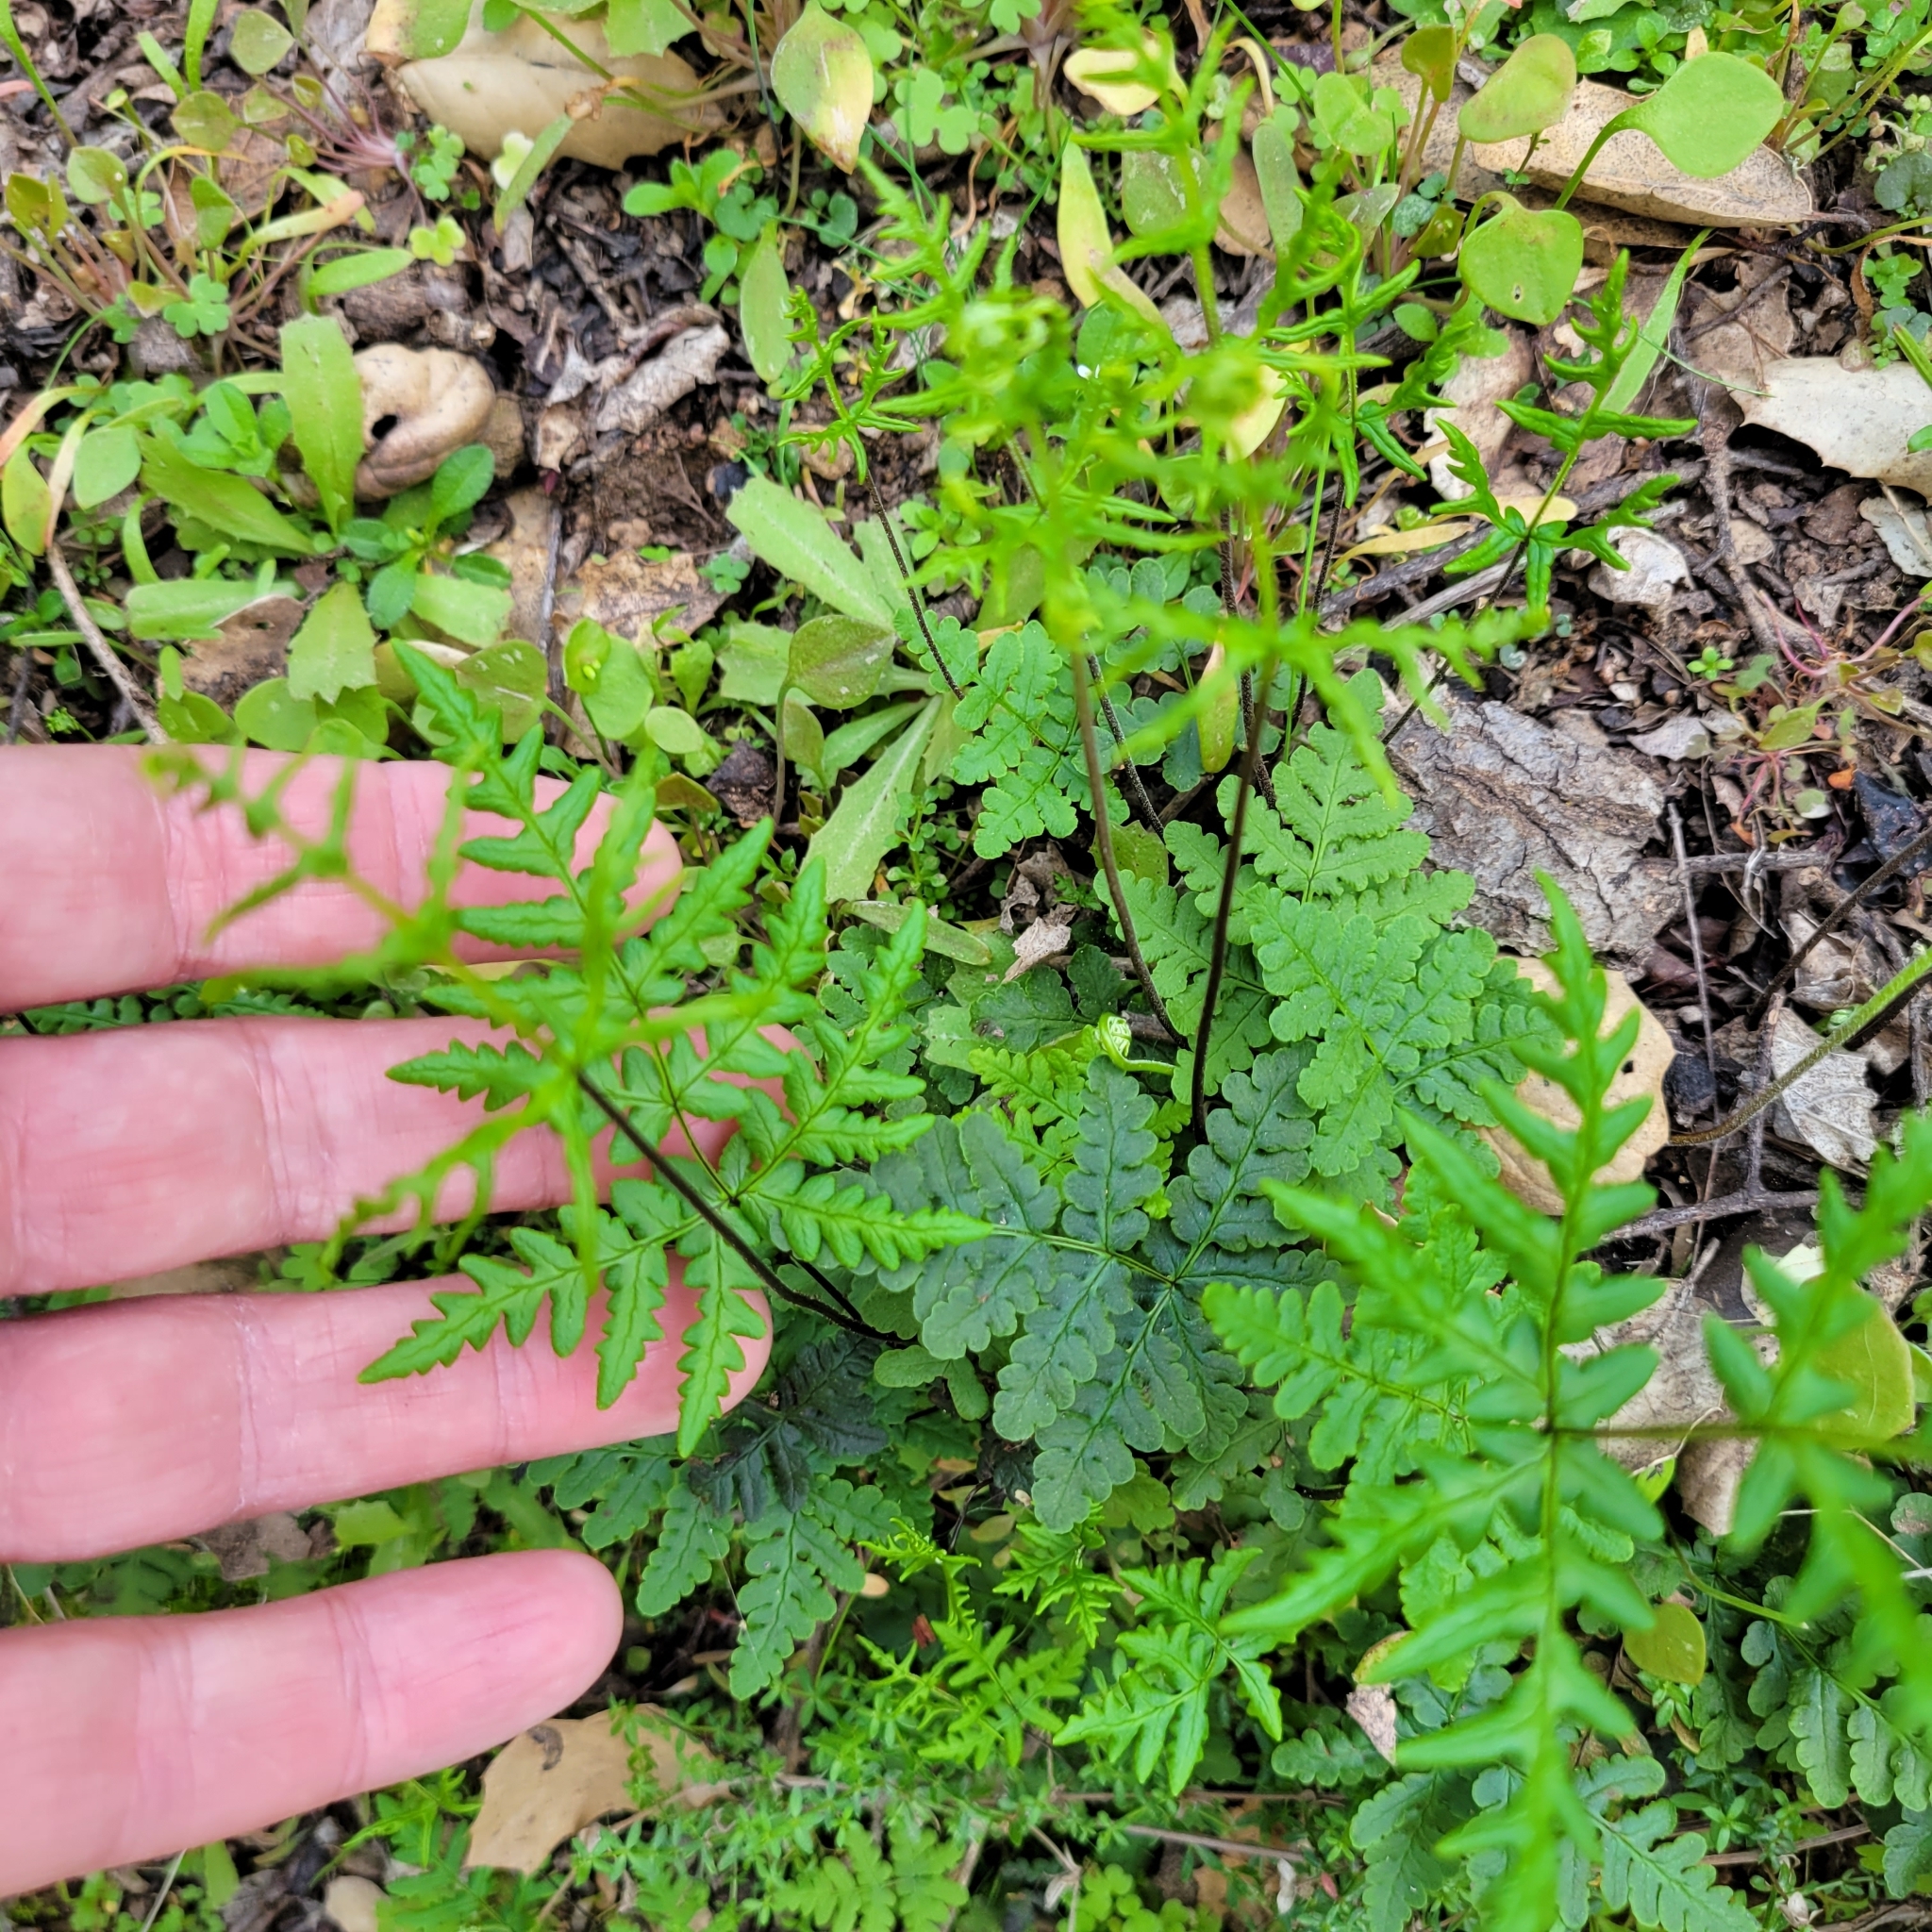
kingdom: Plantae
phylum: Tracheophyta
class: Polypodiopsida
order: Polypodiales
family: Pteridaceae
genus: Pentagramma
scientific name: Pentagramma triangularis
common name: Gold fern
